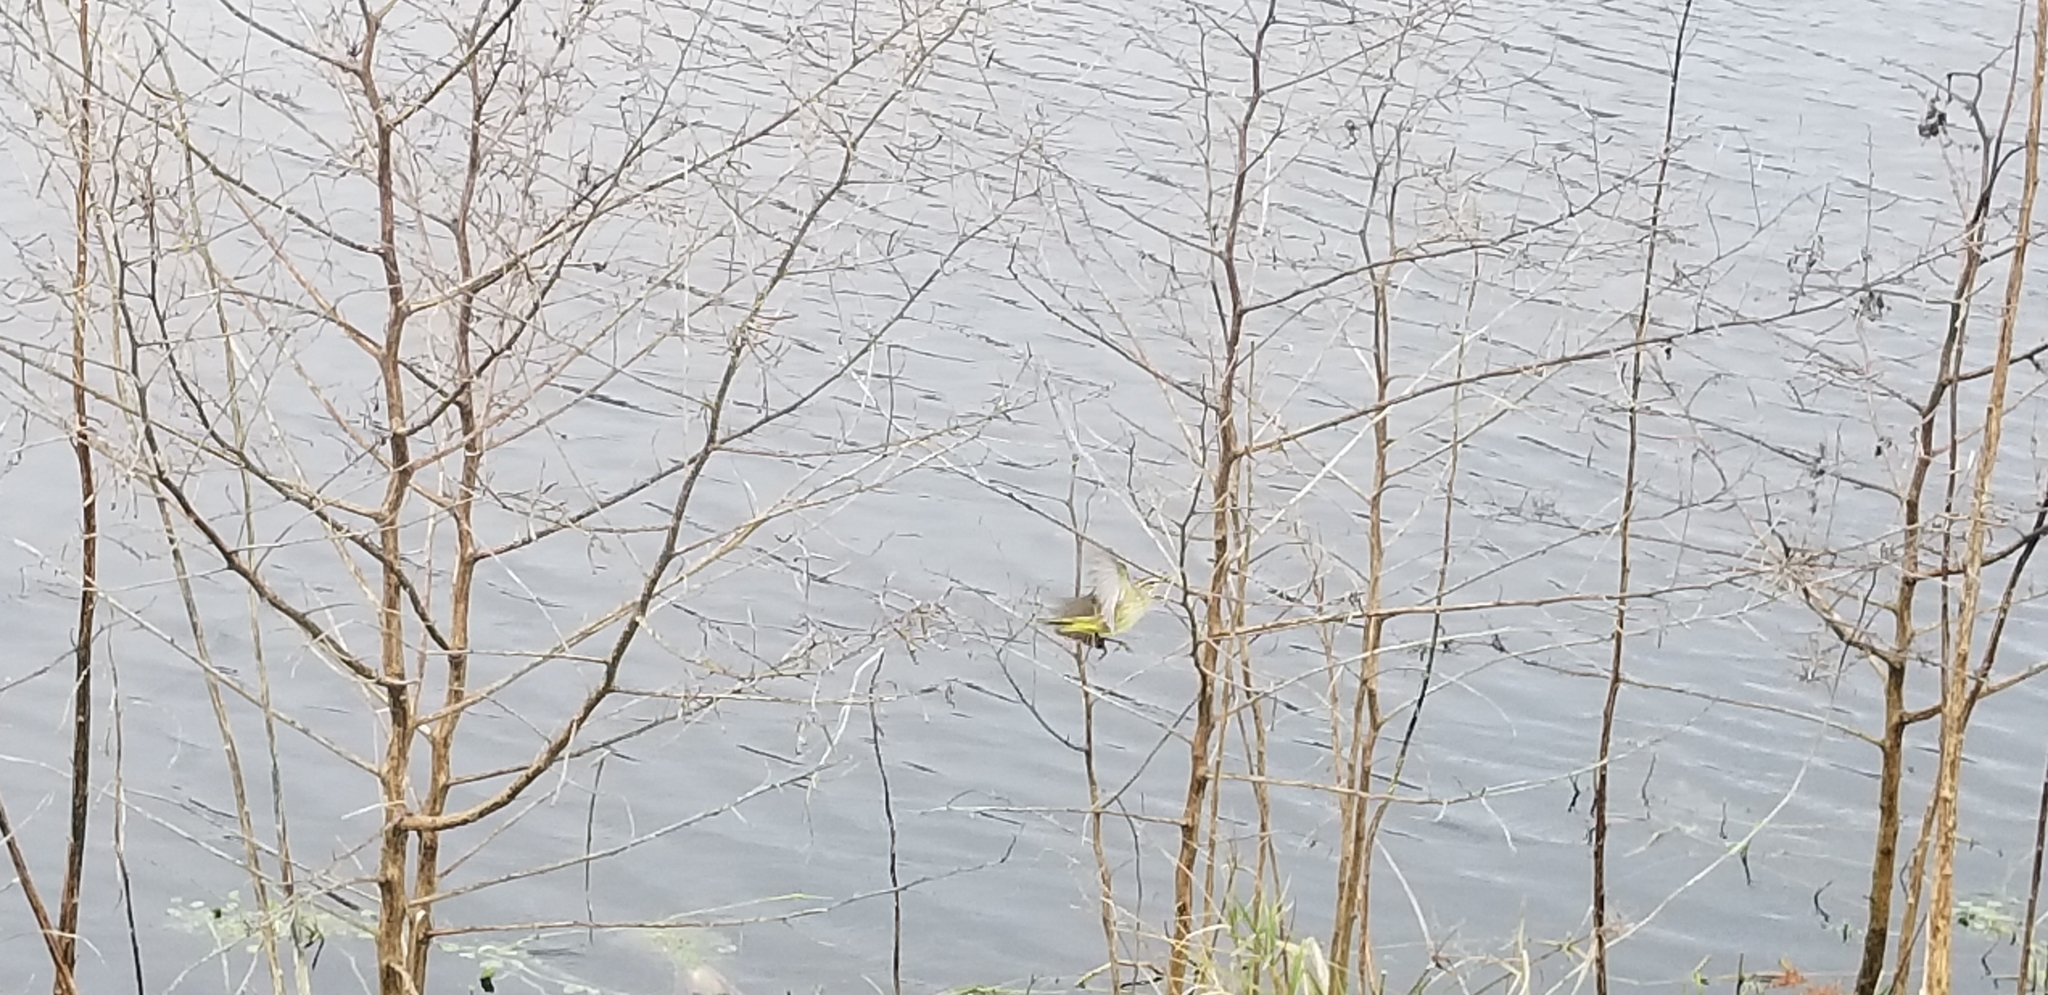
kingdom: Animalia
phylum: Chordata
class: Aves
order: Passeriformes
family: Parulidae
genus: Setophaga
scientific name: Setophaga palmarum
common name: Palm warbler
